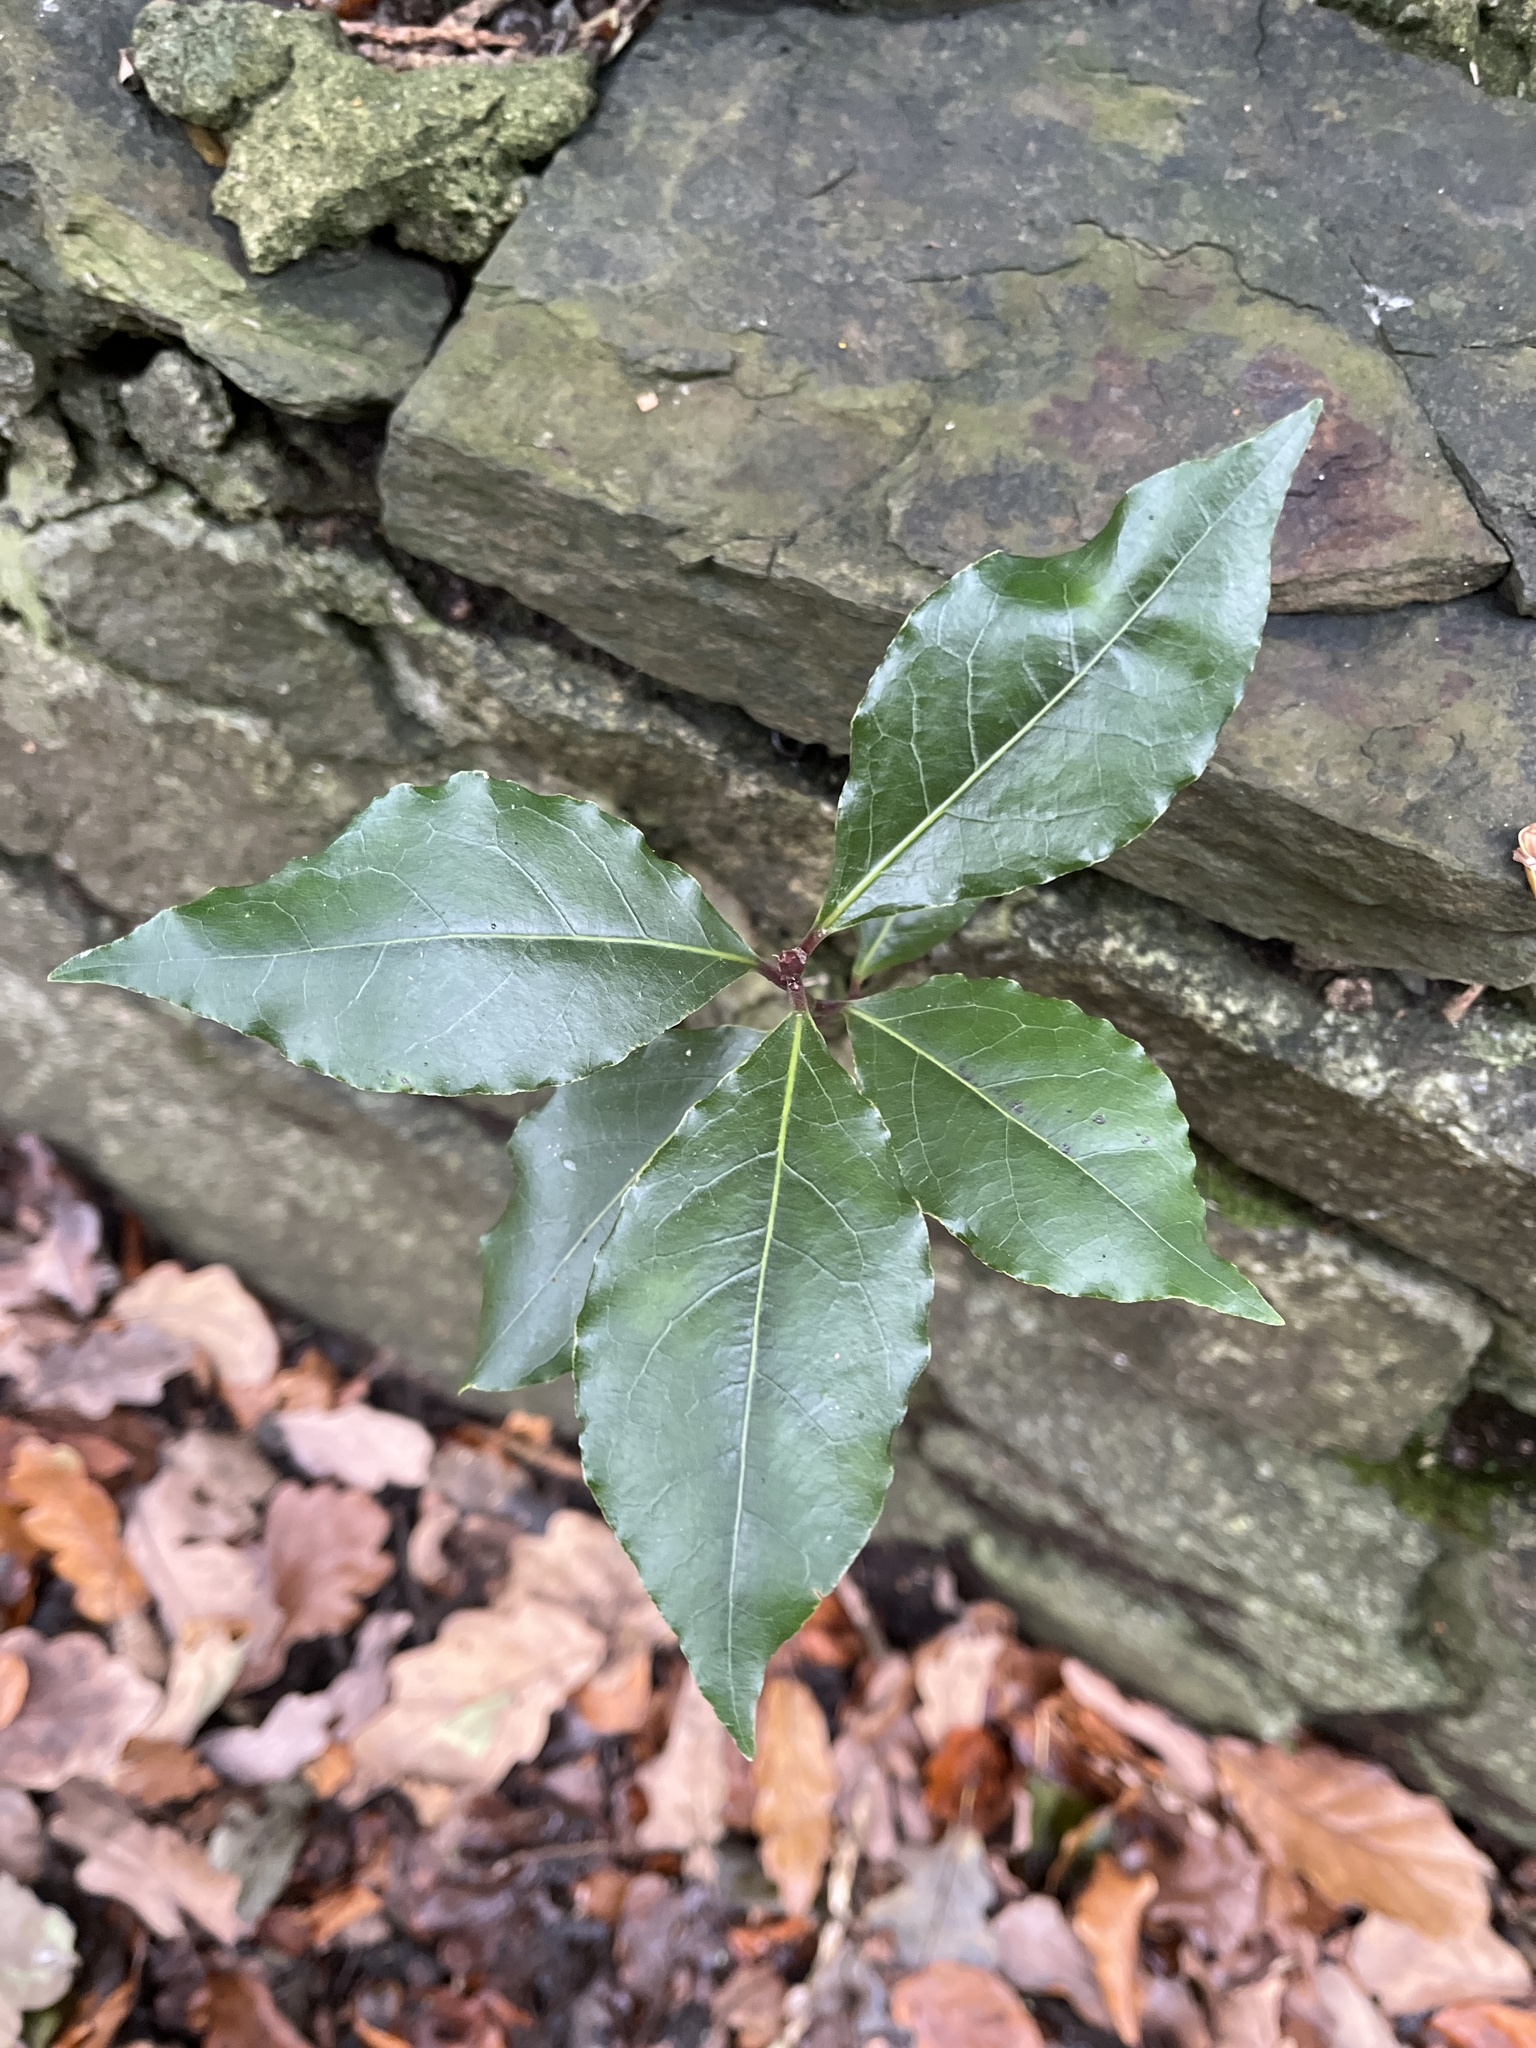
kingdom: Plantae
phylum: Tracheophyta
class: Magnoliopsida
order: Laurales
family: Lauraceae
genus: Laurus
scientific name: Laurus nobilis
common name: Bay
